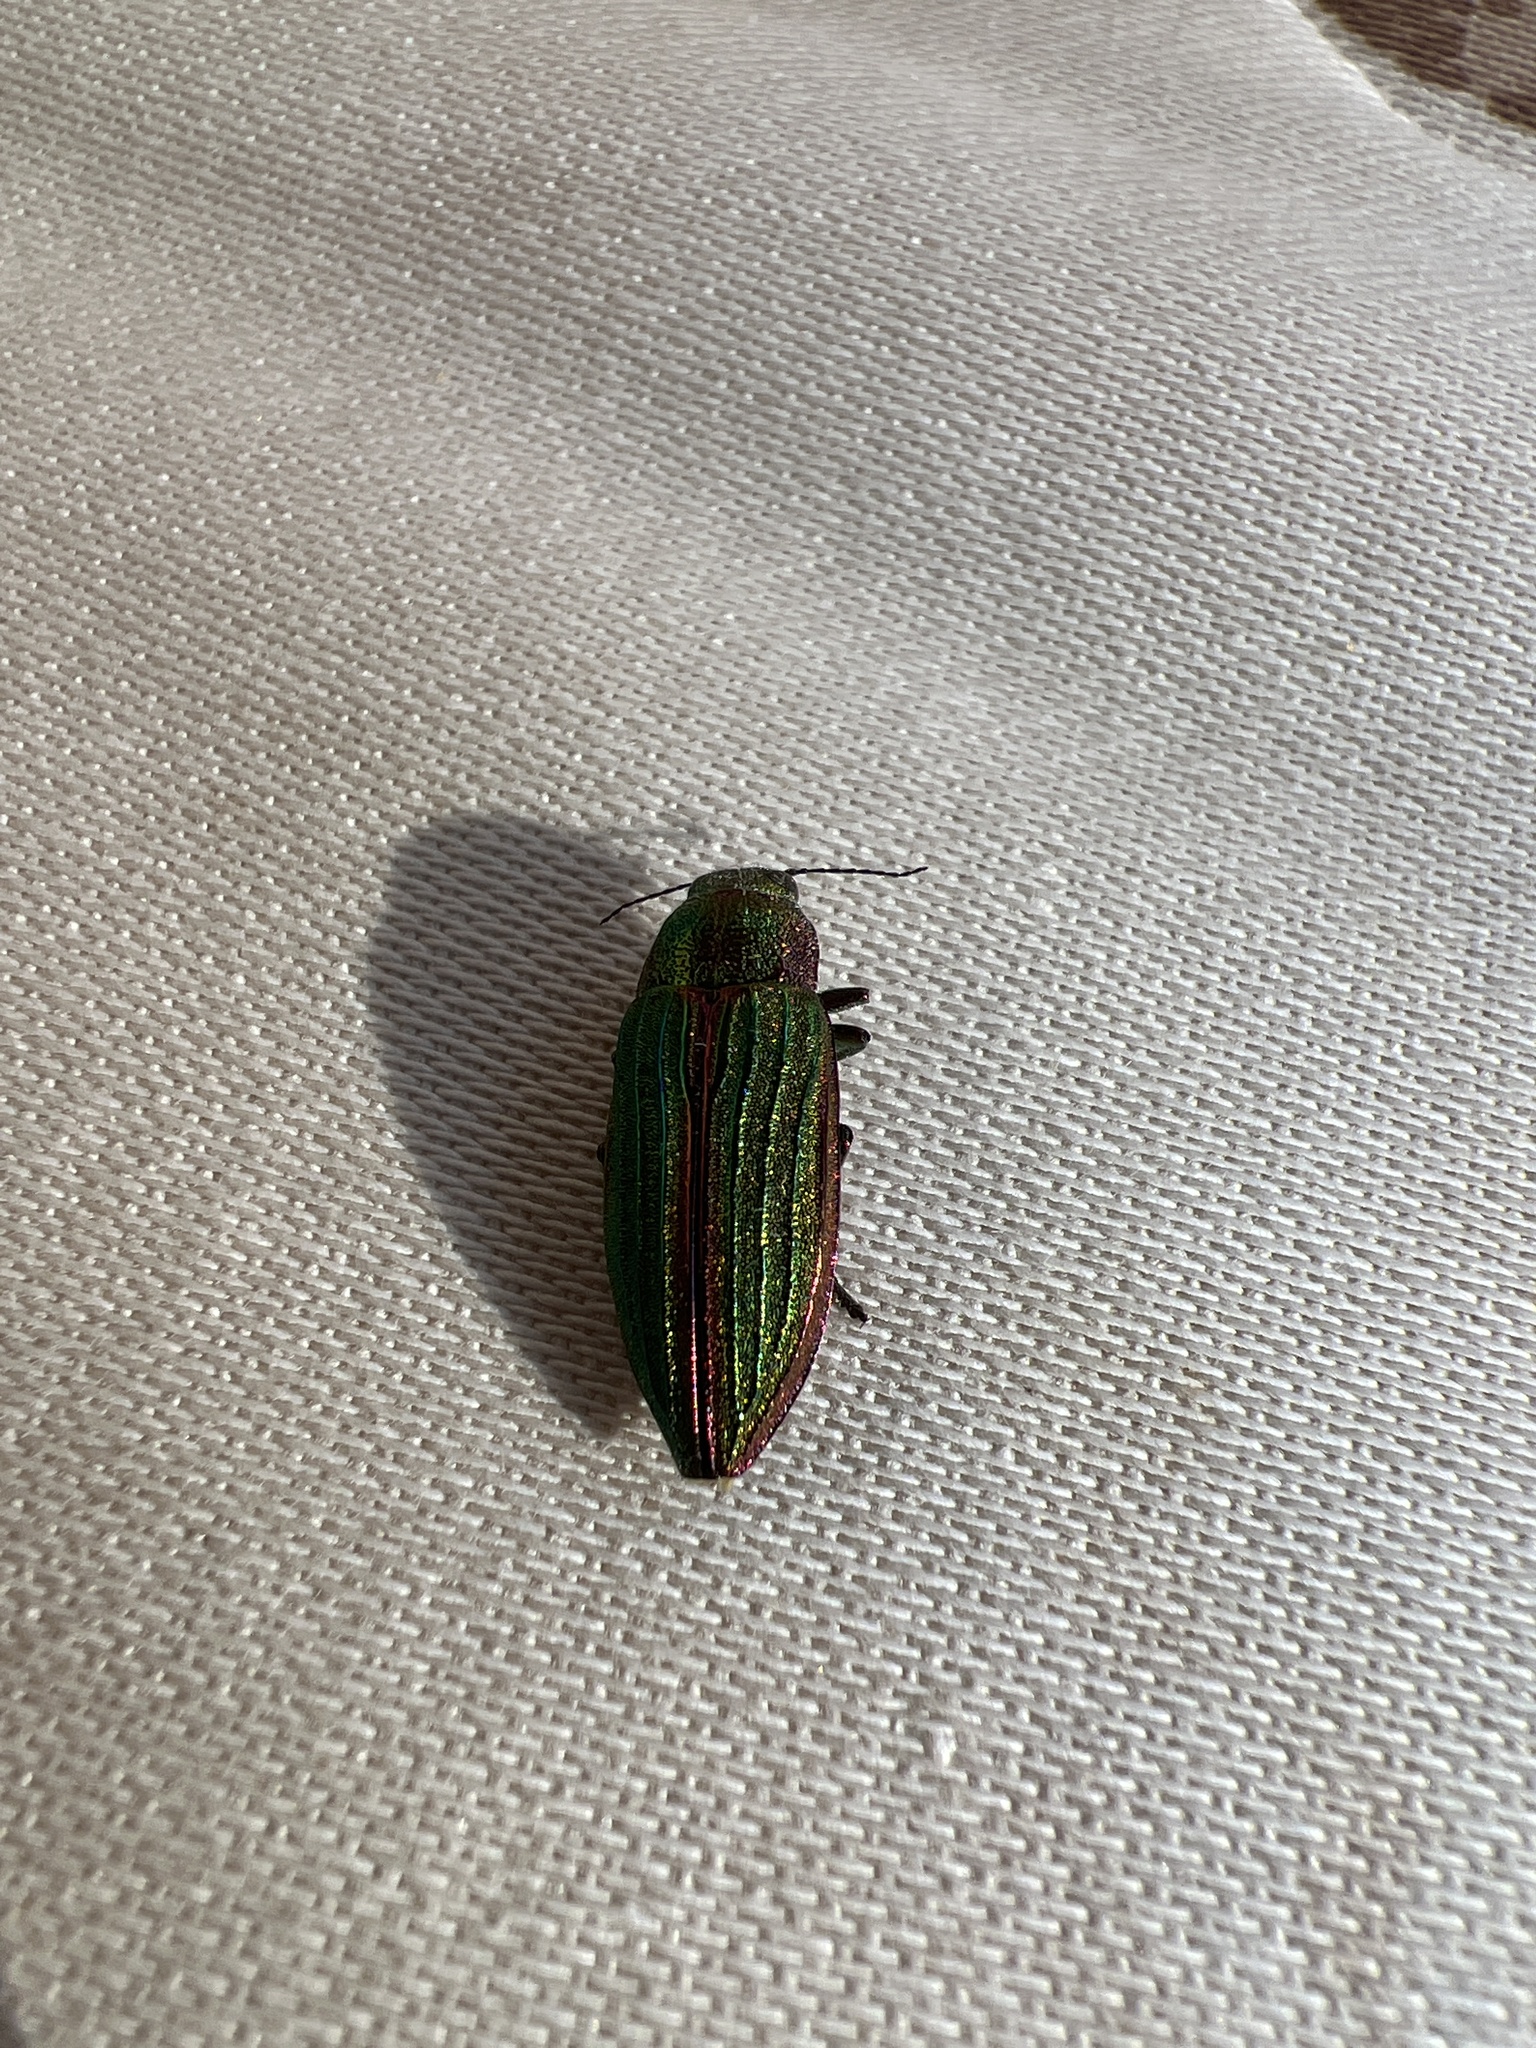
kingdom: Animalia
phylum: Arthropoda
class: Insecta
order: Coleoptera
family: Buprestidae
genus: Buprestis
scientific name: Buprestis aurulenta
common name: Golden buprestid
